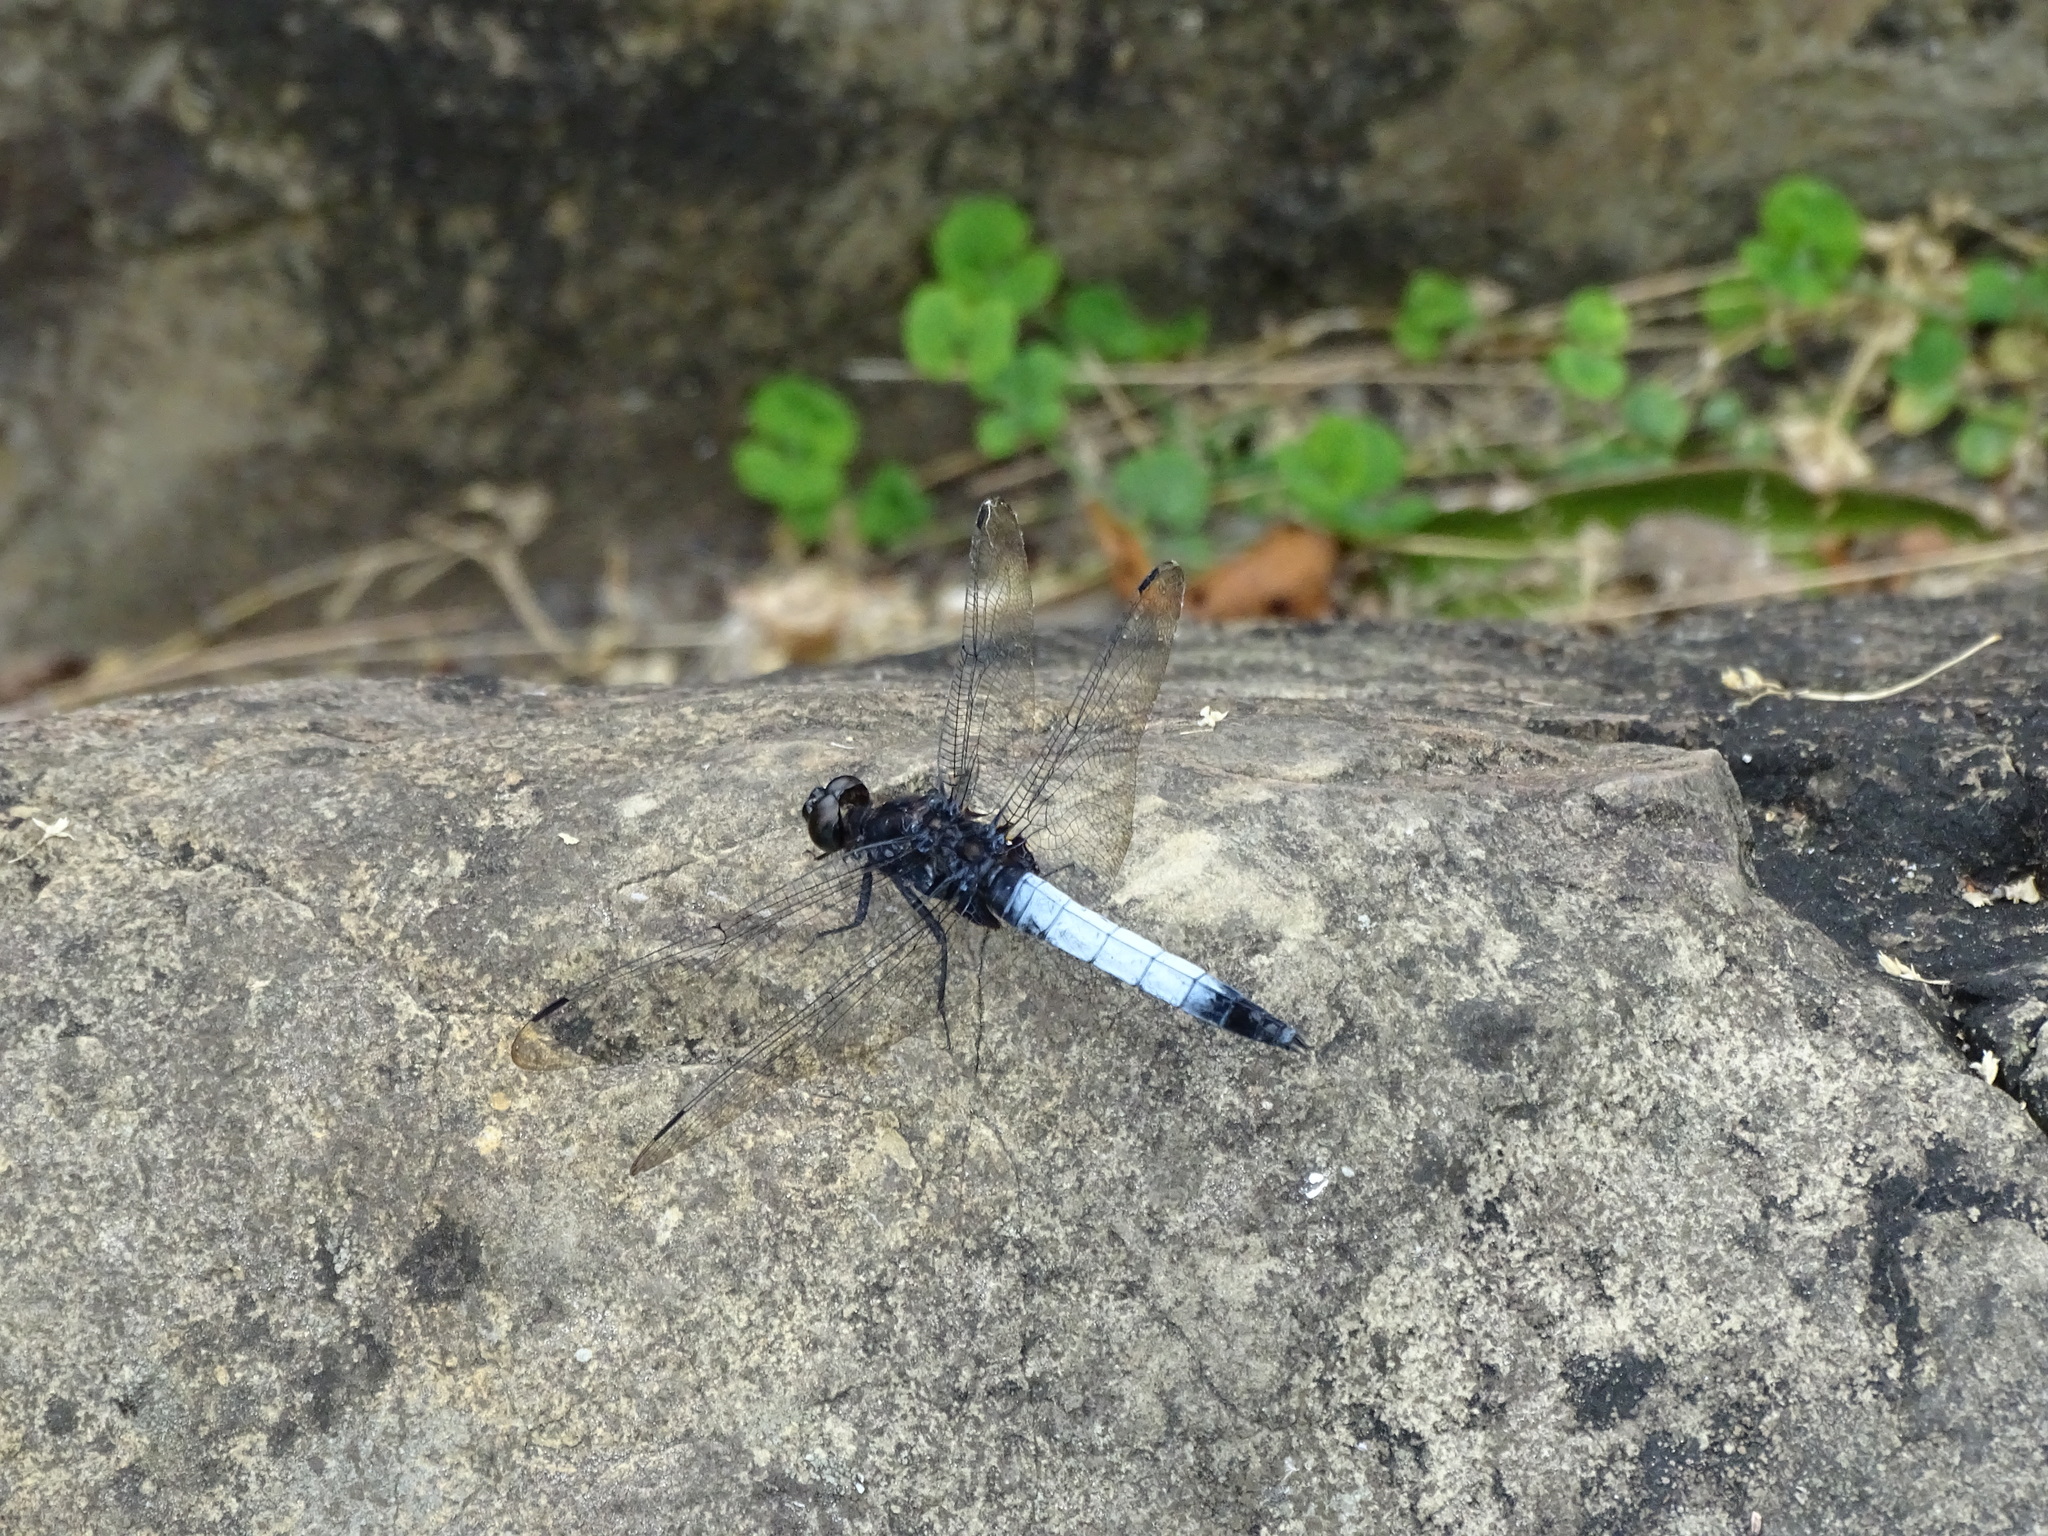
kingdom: Animalia
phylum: Arthropoda
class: Insecta
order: Odonata
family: Libellulidae
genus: Orthetrum
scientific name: Orthetrum triangulare
